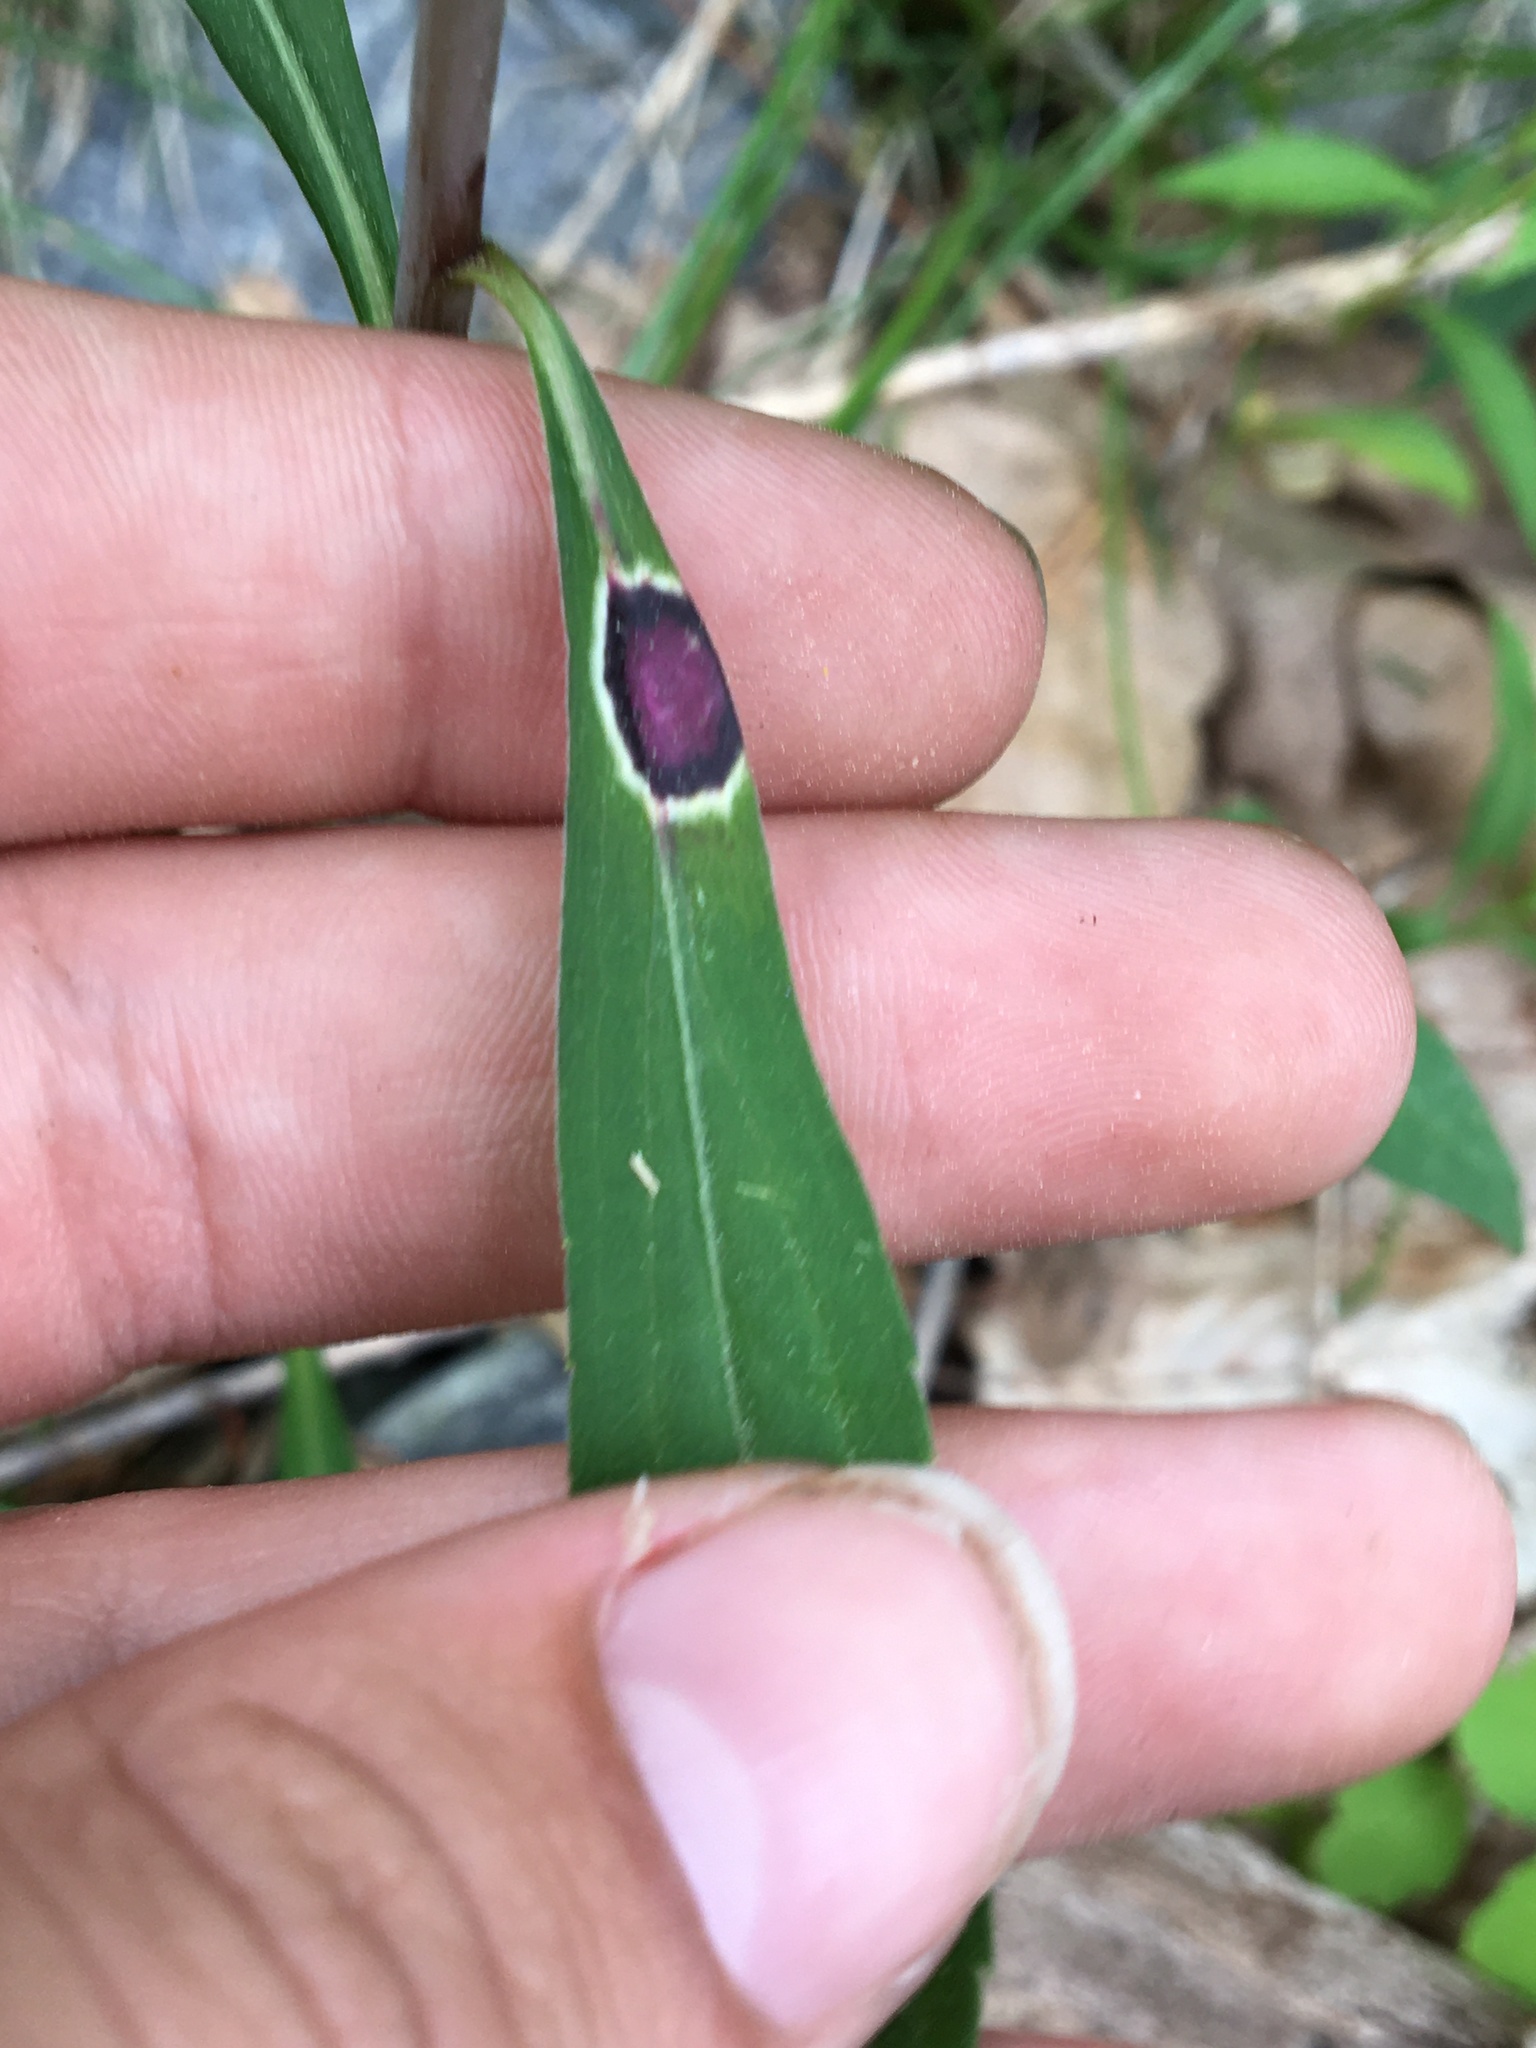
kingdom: Animalia
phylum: Arthropoda
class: Insecta
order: Diptera
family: Cecidomyiidae
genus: Asteromyia
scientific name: Asteromyia carbonifera
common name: Carbonifera goldenrod gall midge
